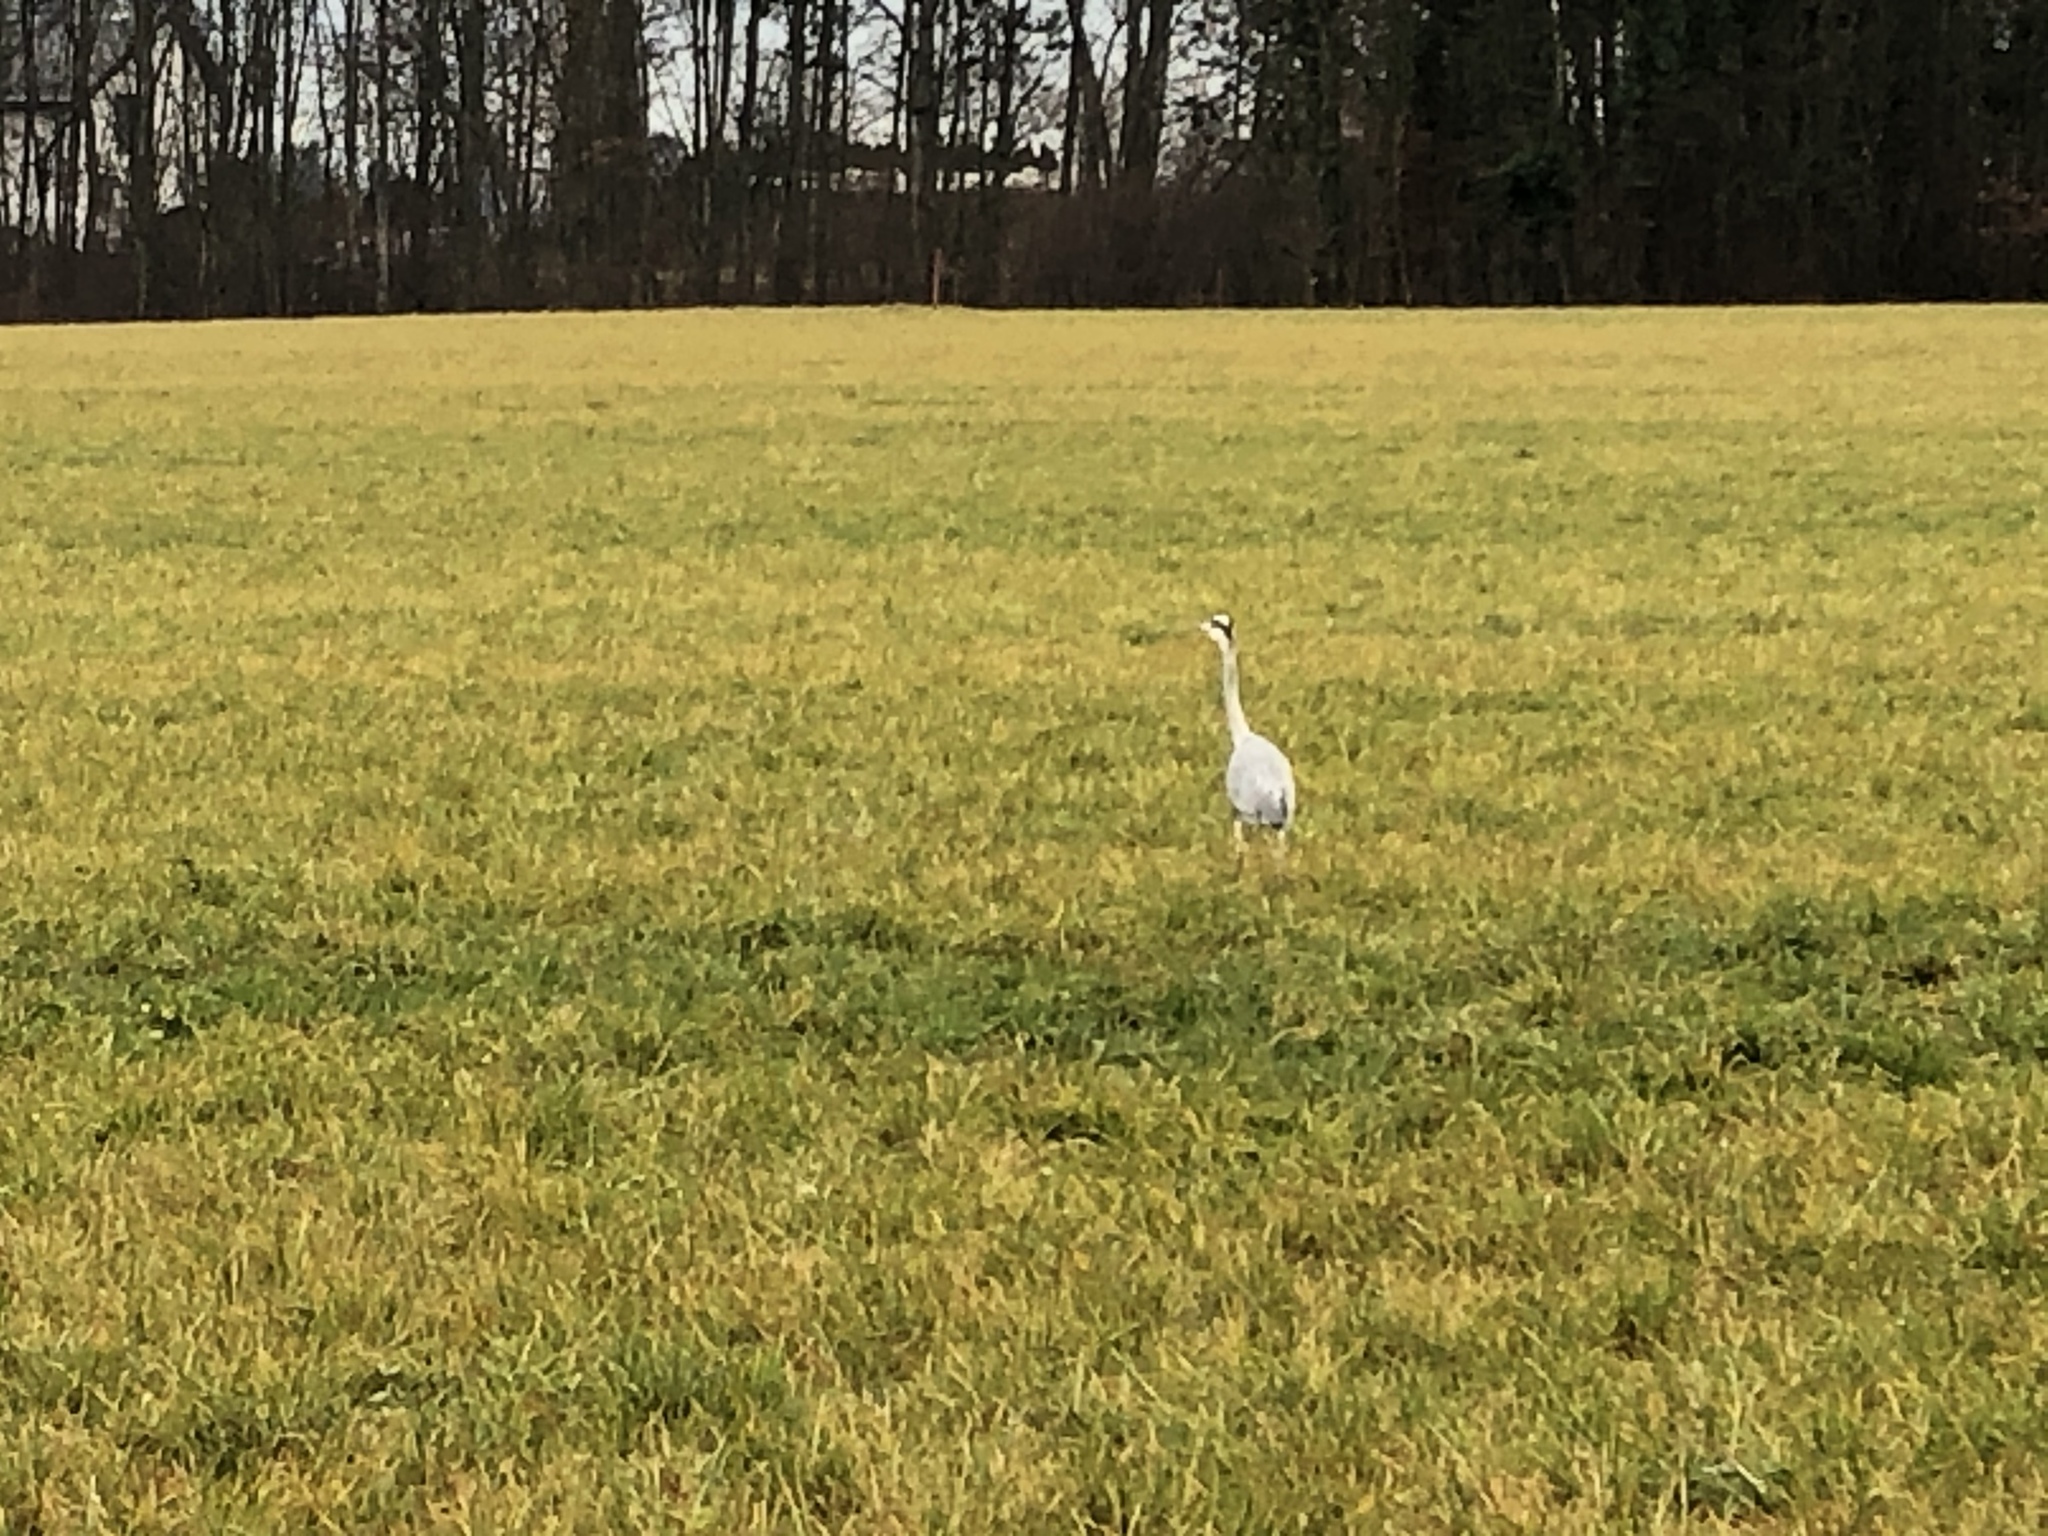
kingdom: Animalia
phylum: Chordata
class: Aves
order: Pelecaniformes
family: Ardeidae
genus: Ardea
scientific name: Ardea cinerea
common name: Grey heron
